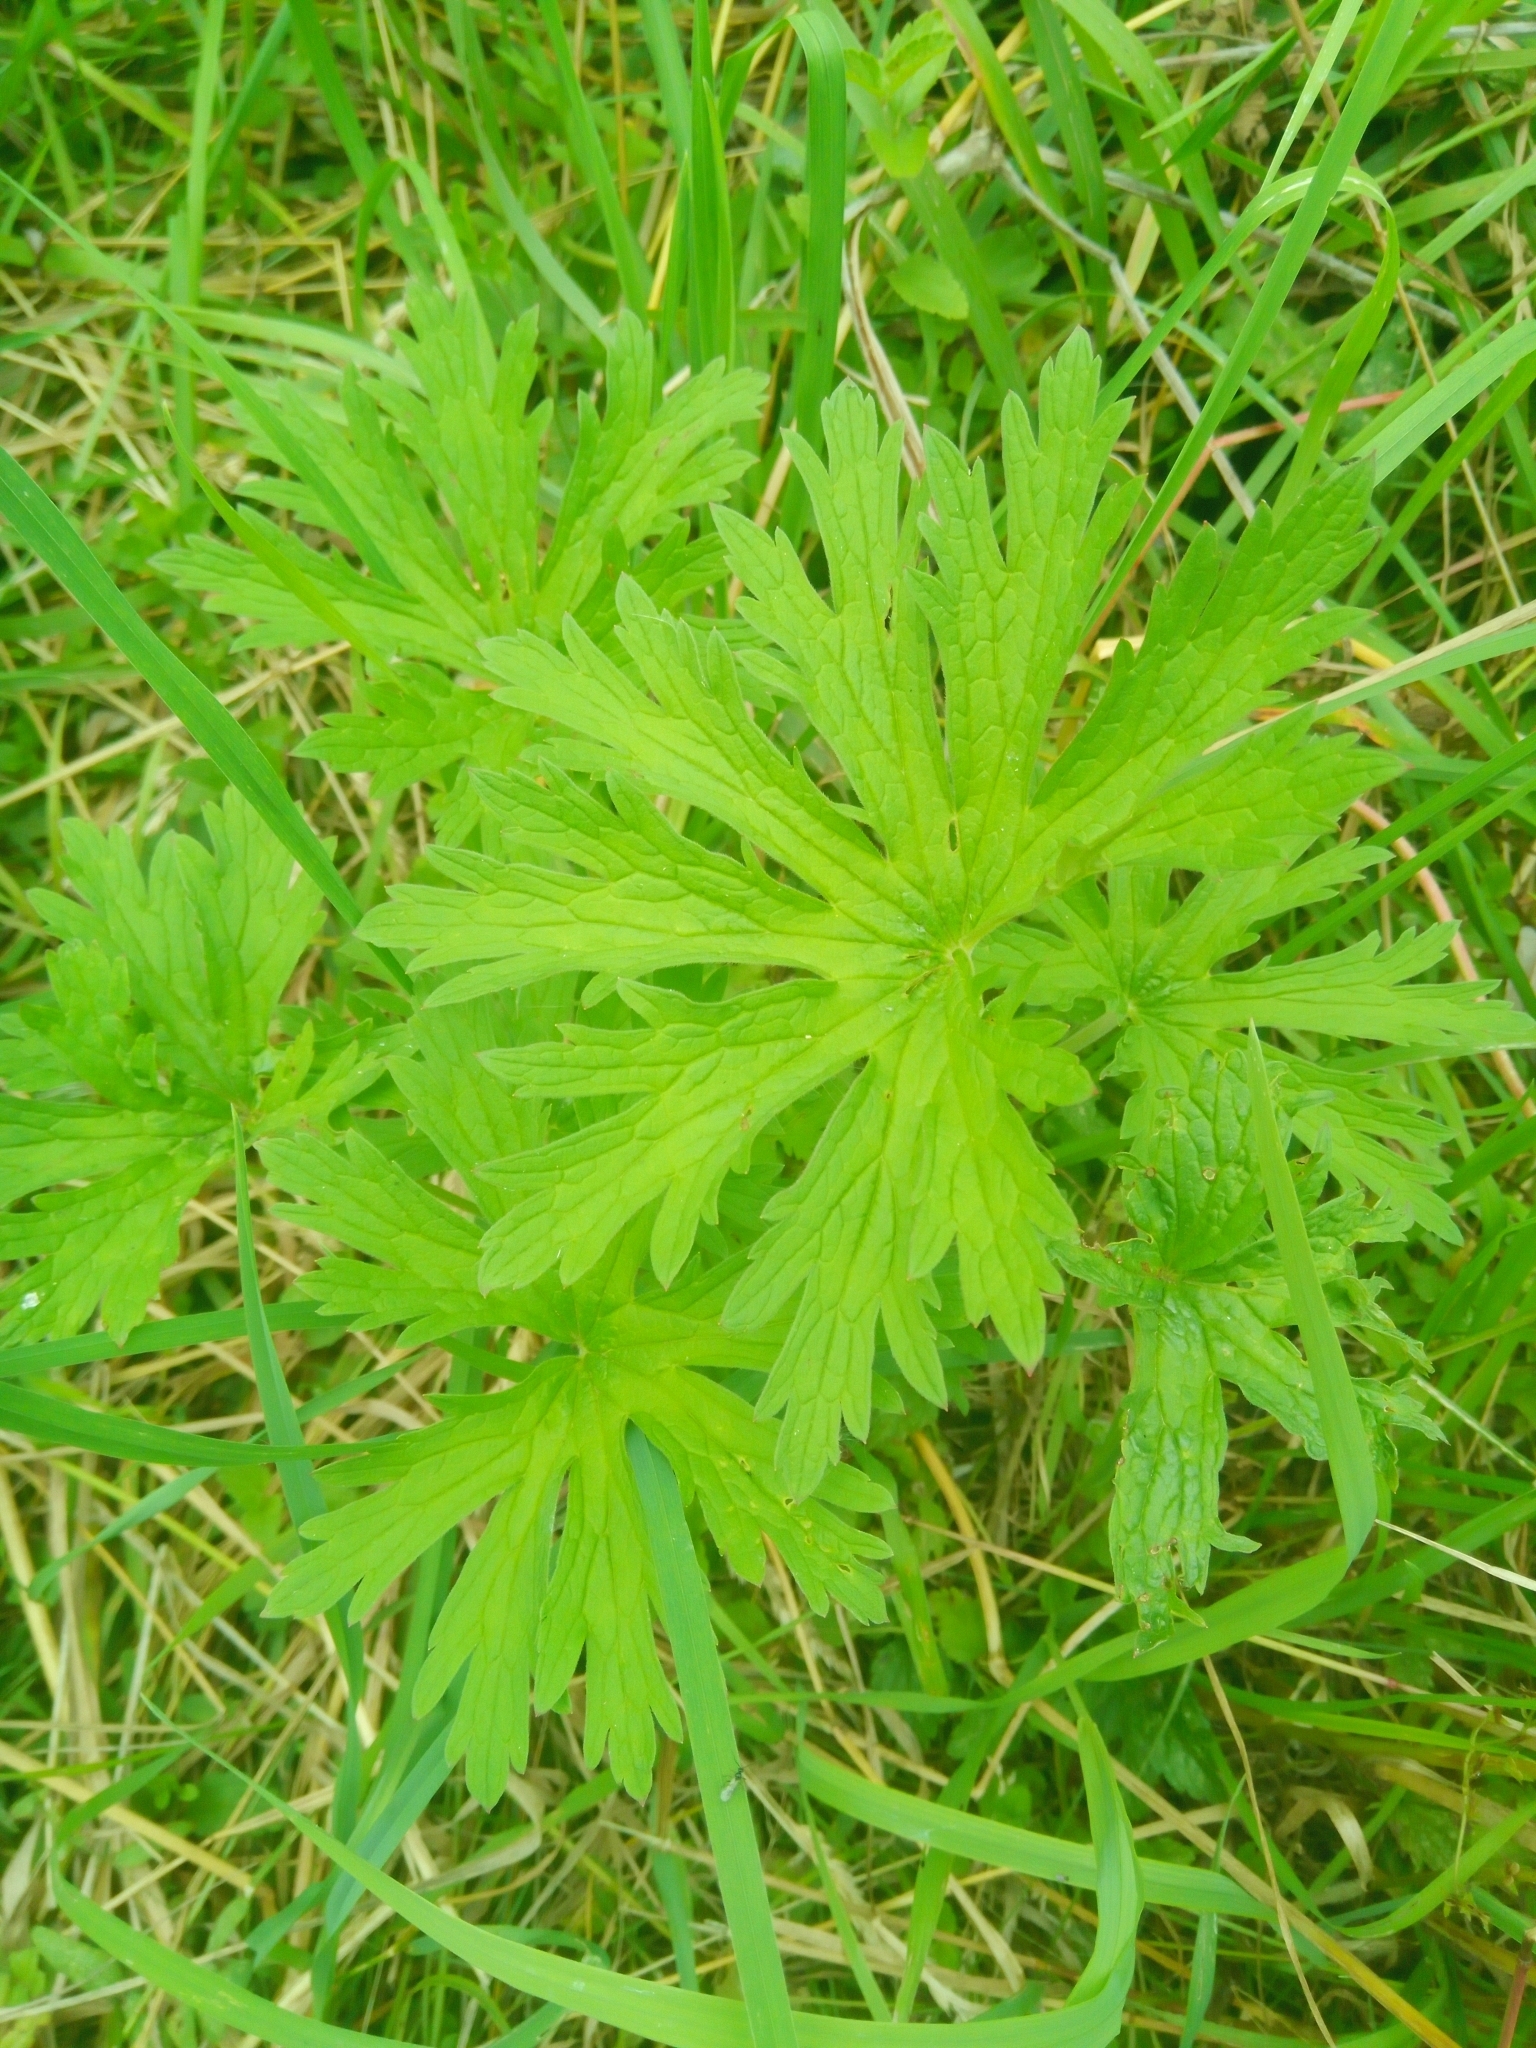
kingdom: Plantae
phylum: Tracheophyta
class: Magnoliopsida
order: Geraniales
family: Geraniaceae
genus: Geranium
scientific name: Geranium pratense
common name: Meadow crane's-bill
